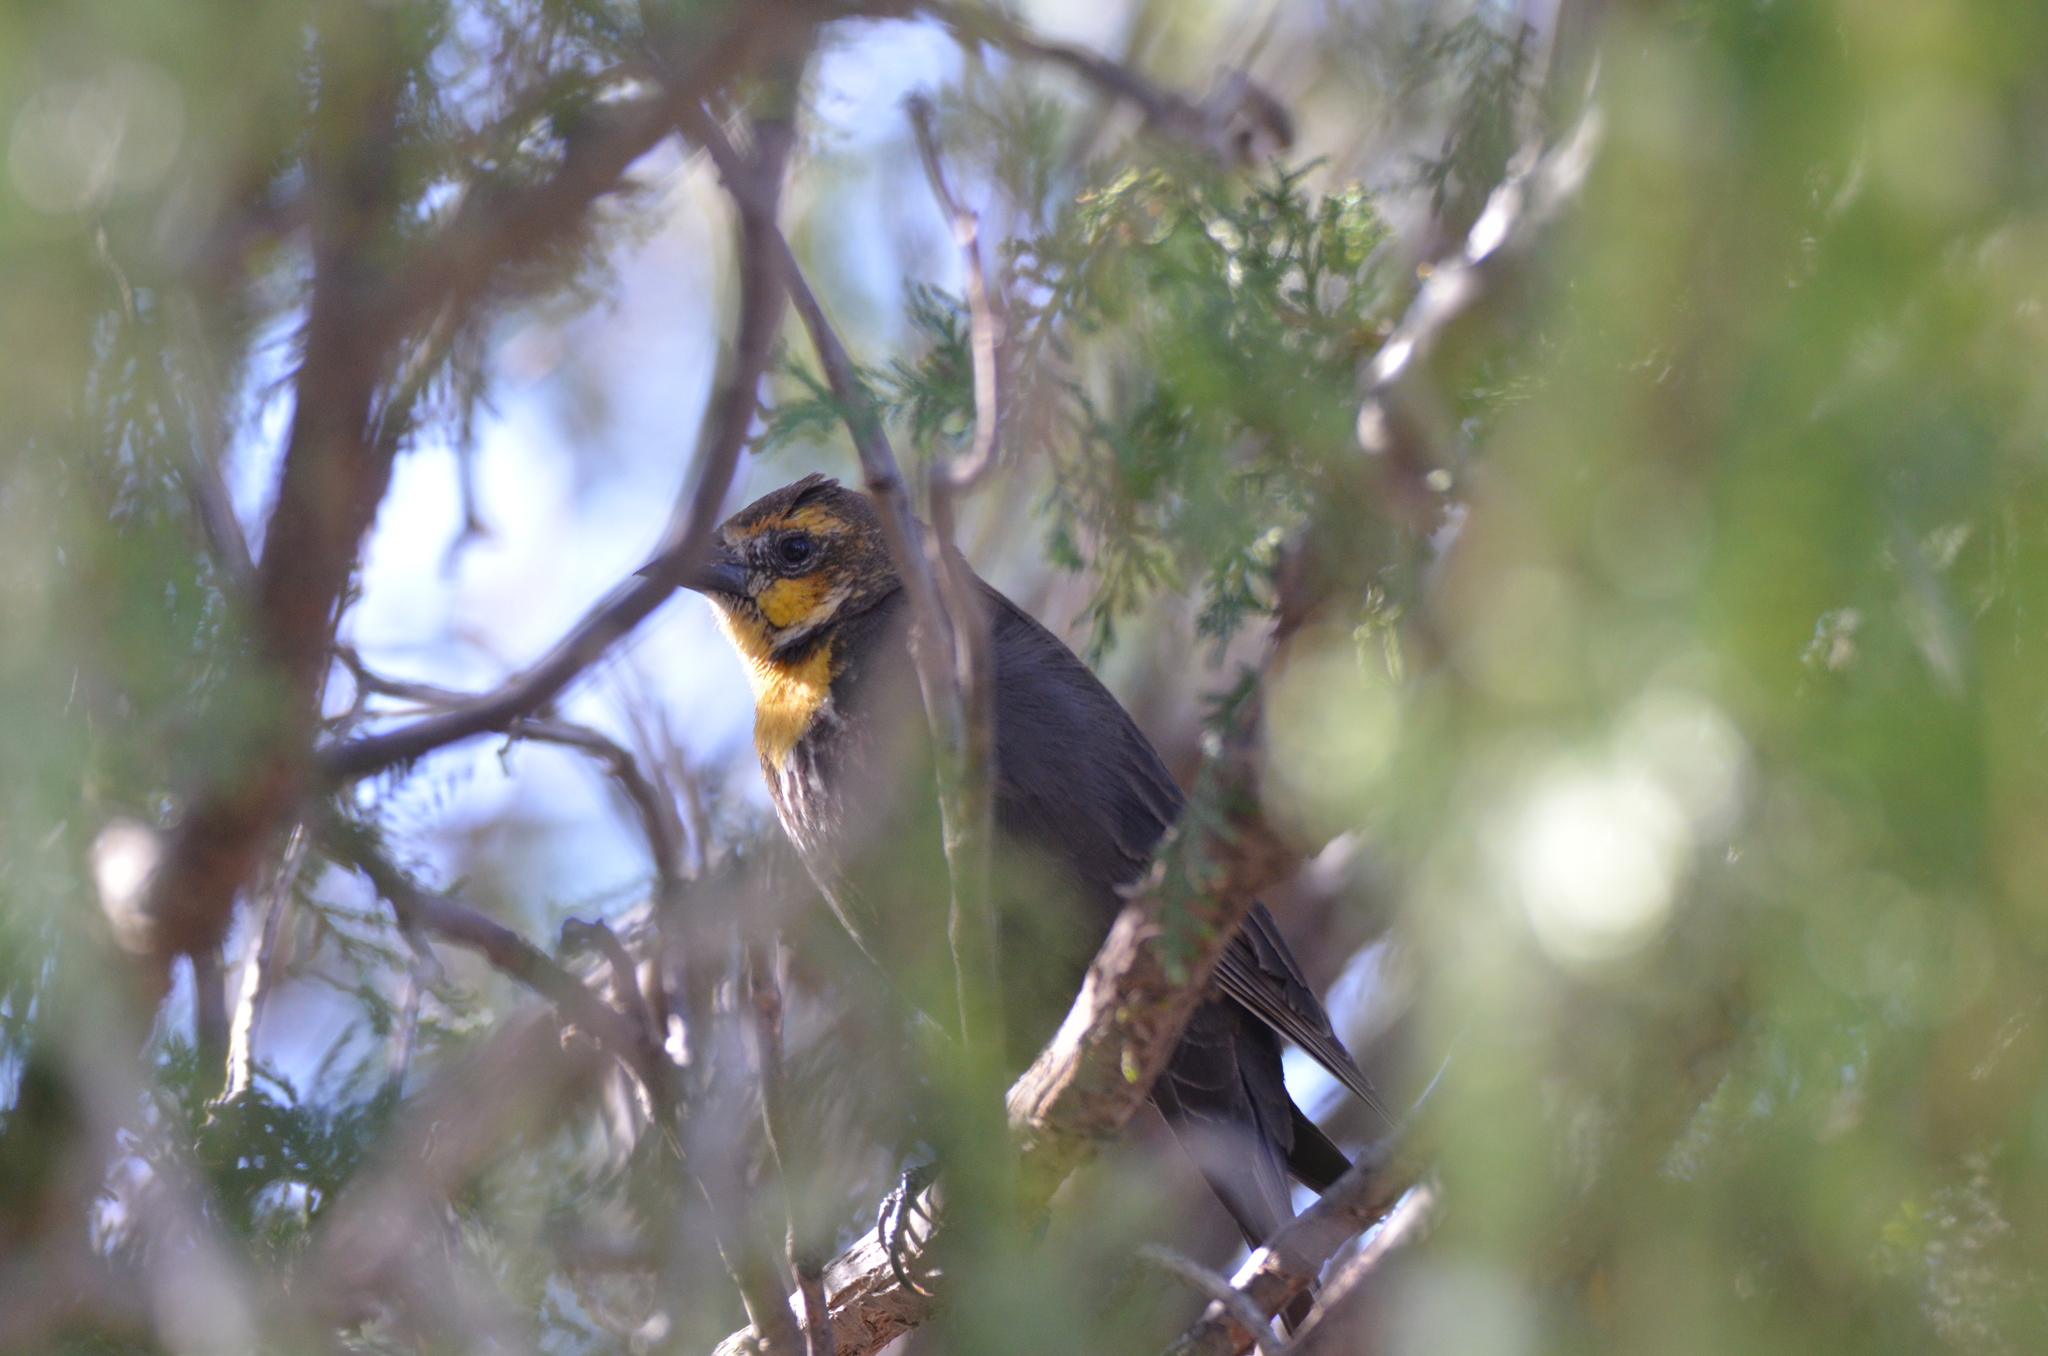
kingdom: Animalia
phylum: Chordata
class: Aves
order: Passeriformes
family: Icteridae
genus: Xanthocephalus
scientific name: Xanthocephalus xanthocephalus
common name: Yellow-headed blackbird
